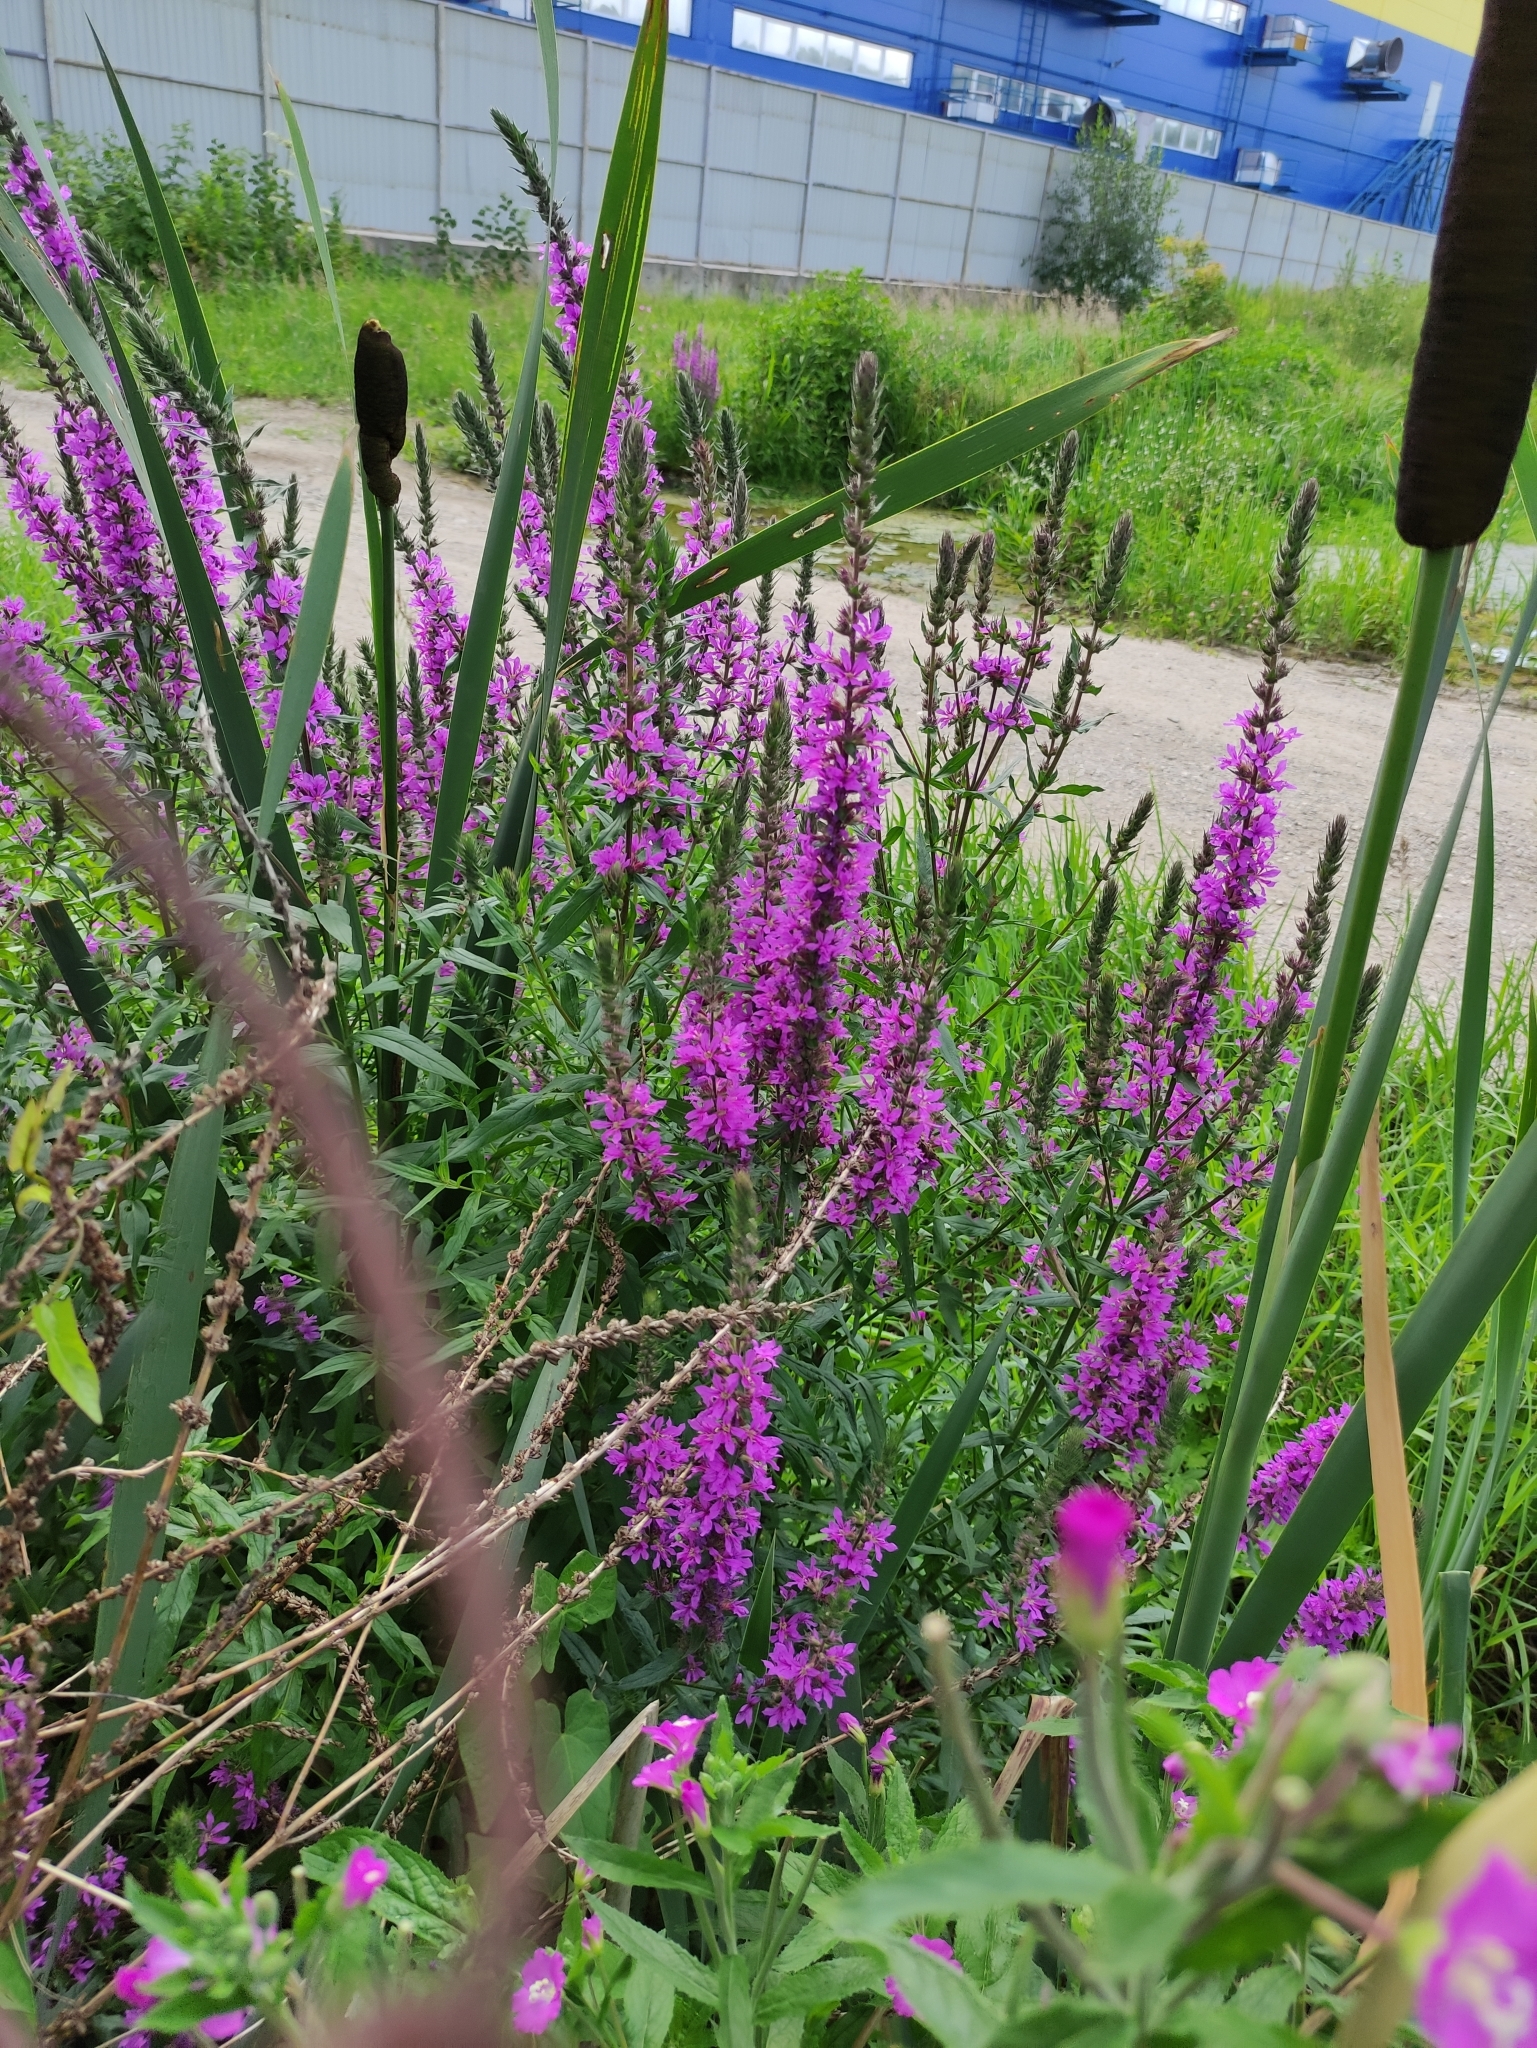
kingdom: Plantae
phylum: Tracheophyta
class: Magnoliopsida
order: Myrtales
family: Lythraceae
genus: Lythrum
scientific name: Lythrum salicaria
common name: Purple loosestrife
